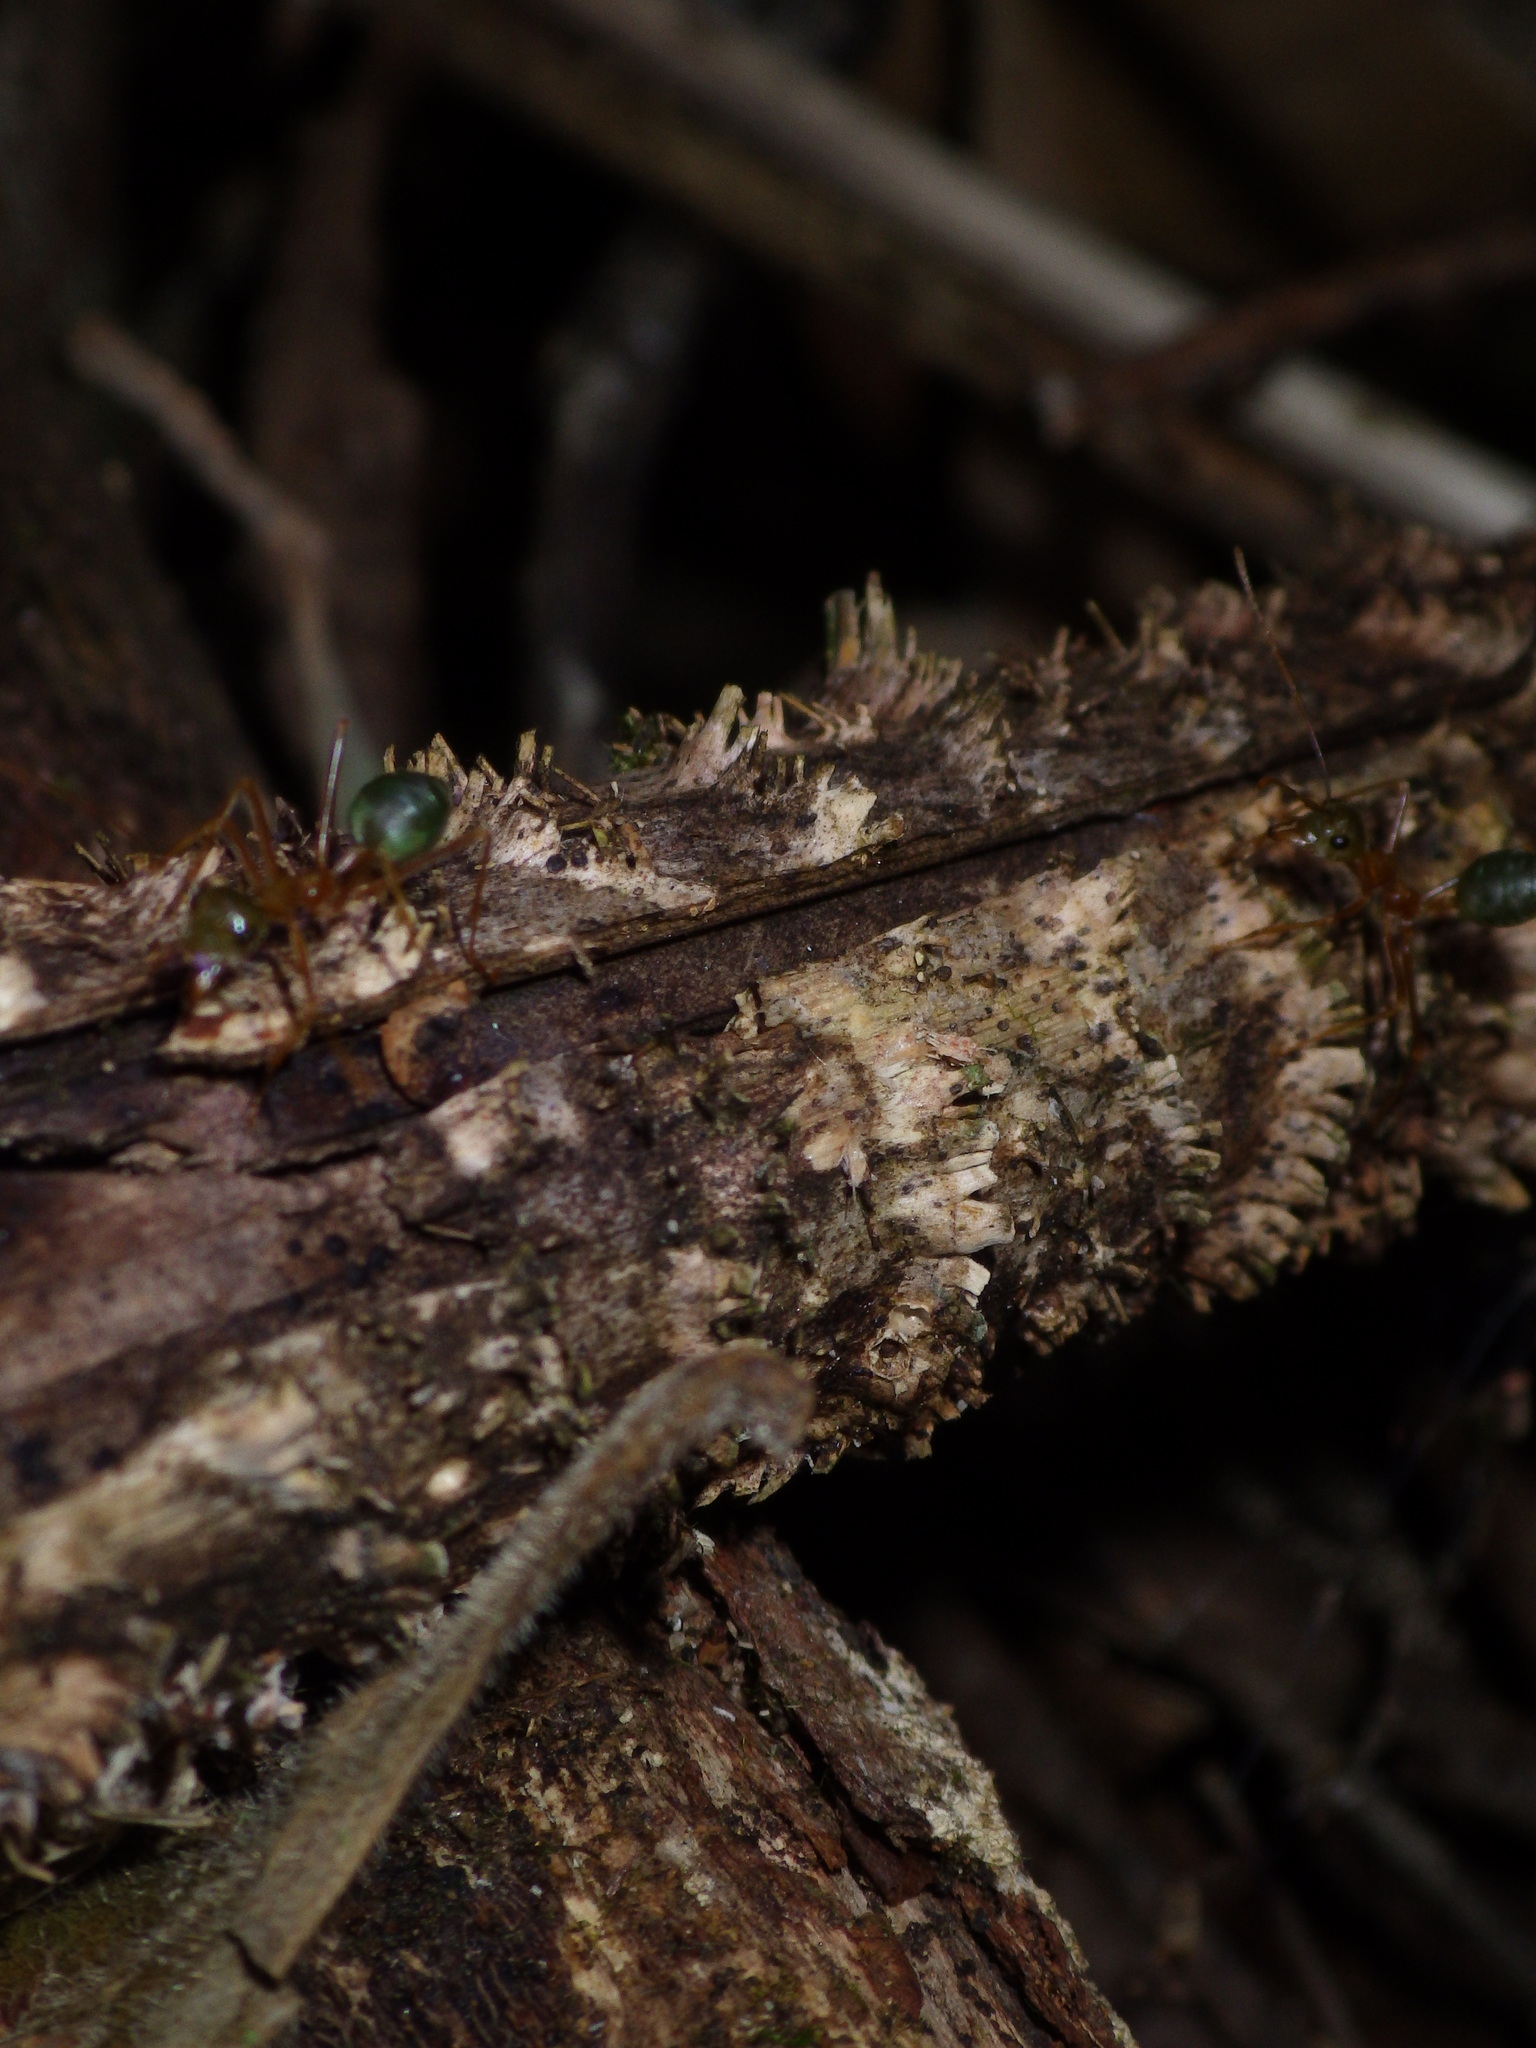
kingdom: Animalia
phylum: Arthropoda
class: Insecta
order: Hymenoptera
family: Formicidae
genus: Oecophylla
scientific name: Oecophylla smaragdina
